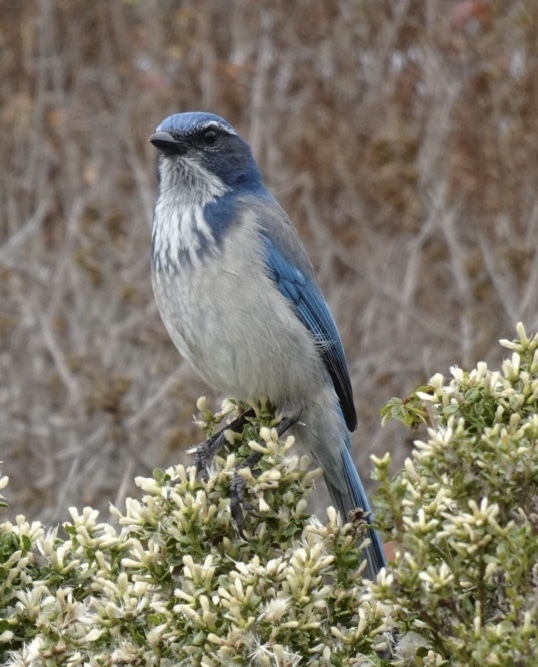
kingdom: Animalia
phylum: Chordata
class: Aves
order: Passeriformes
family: Corvidae
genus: Aphelocoma
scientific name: Aphelocoma californica
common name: California scrub-jay
